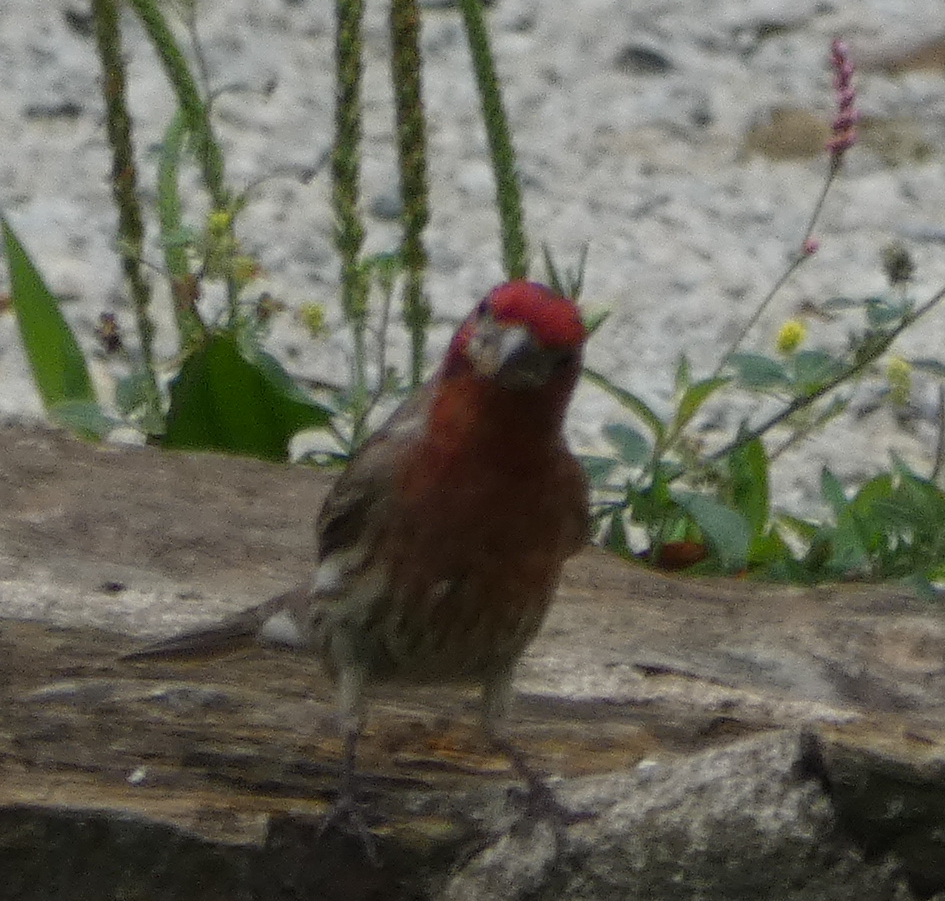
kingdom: Animalia
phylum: Chordata
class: Aves
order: Passeriformes
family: Fringillidae
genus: Haemorhous
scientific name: Haemorhous mexicanus
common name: House finch
